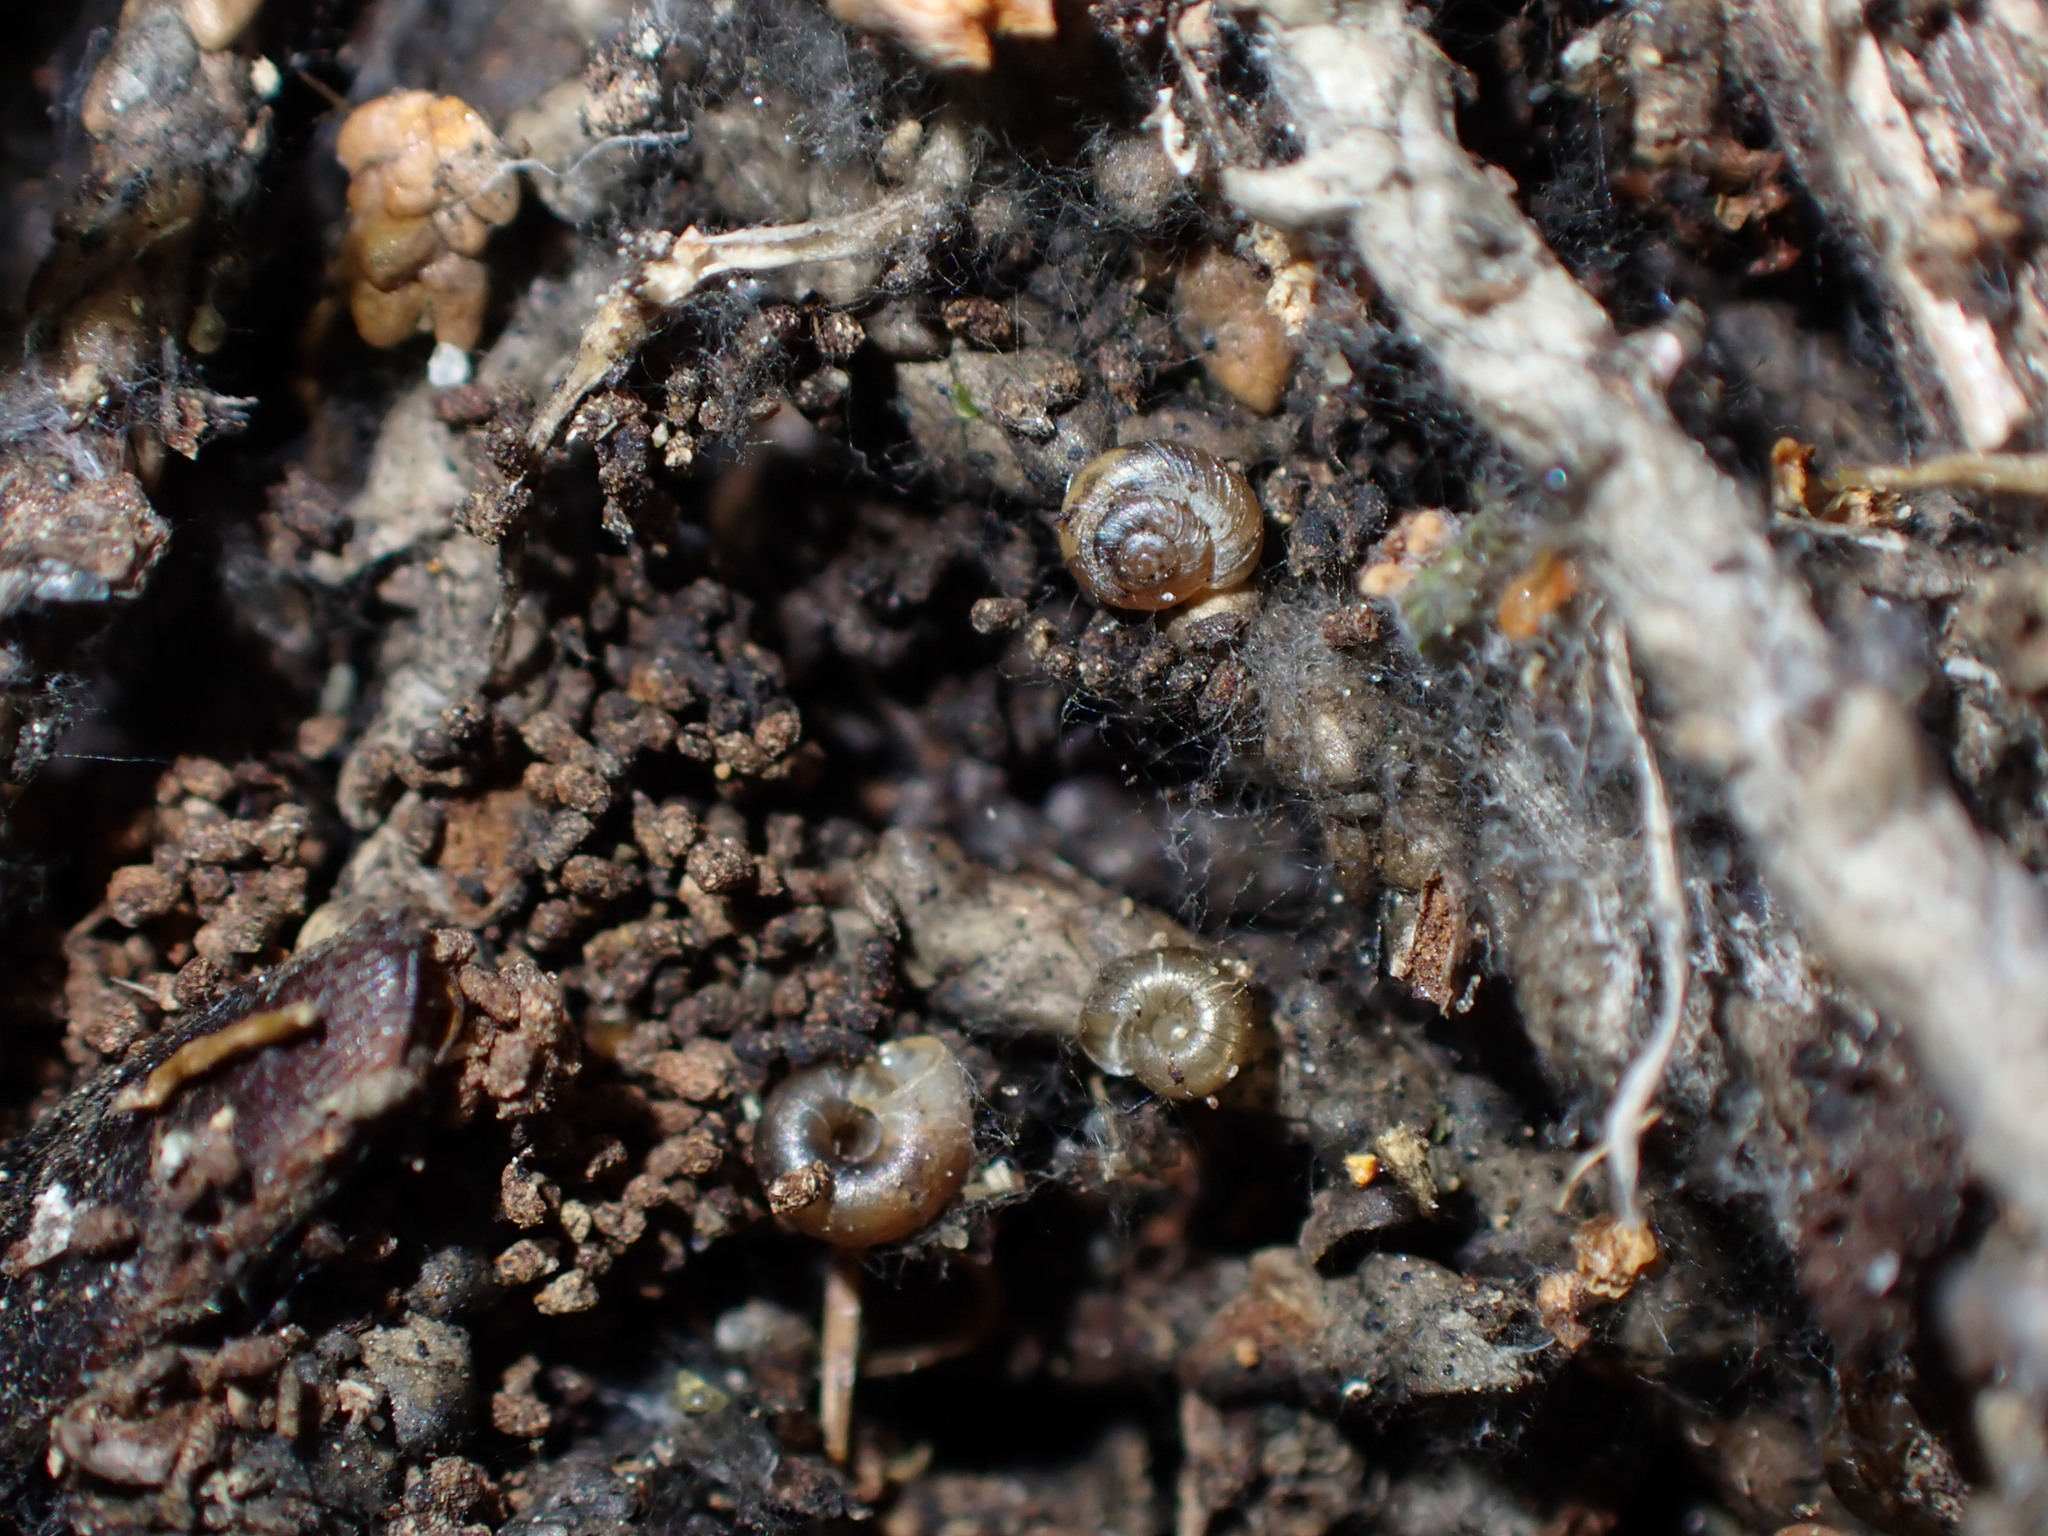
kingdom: Animalia
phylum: Mollusca
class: Gastropoda
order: Stylommatophora
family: Punctidae
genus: Paralaoma
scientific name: Paralaoma servilis
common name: Pinhead spot
